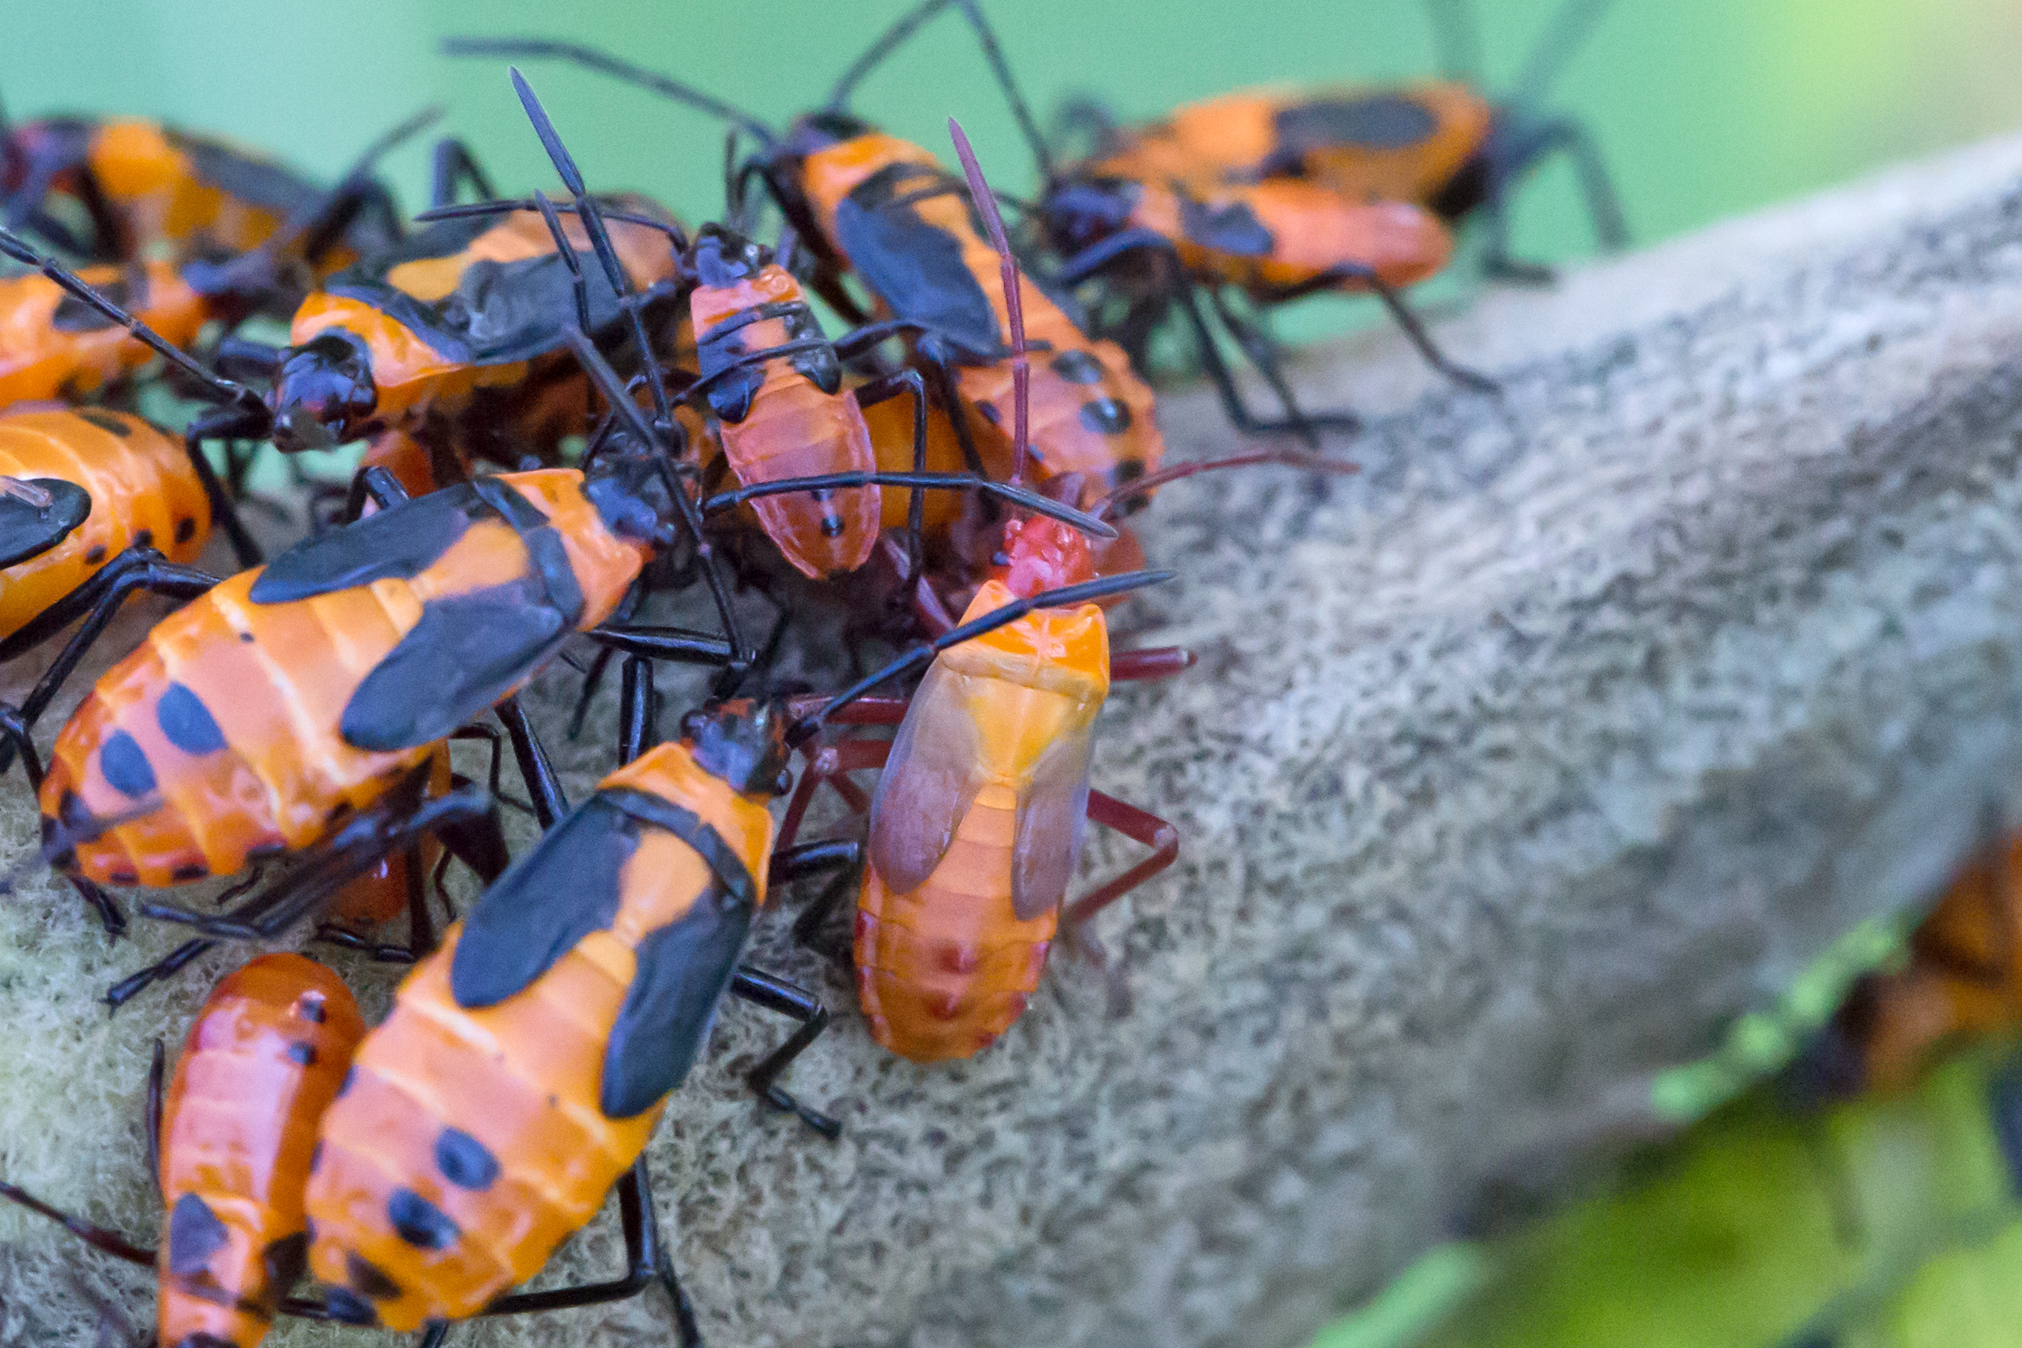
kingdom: Animalia
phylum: Arthropoda
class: Insecta
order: Hemiptera
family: Lygaeidae
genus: Oncopeltus
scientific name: Oncopeltus fasciatus
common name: Large milkweed bug
